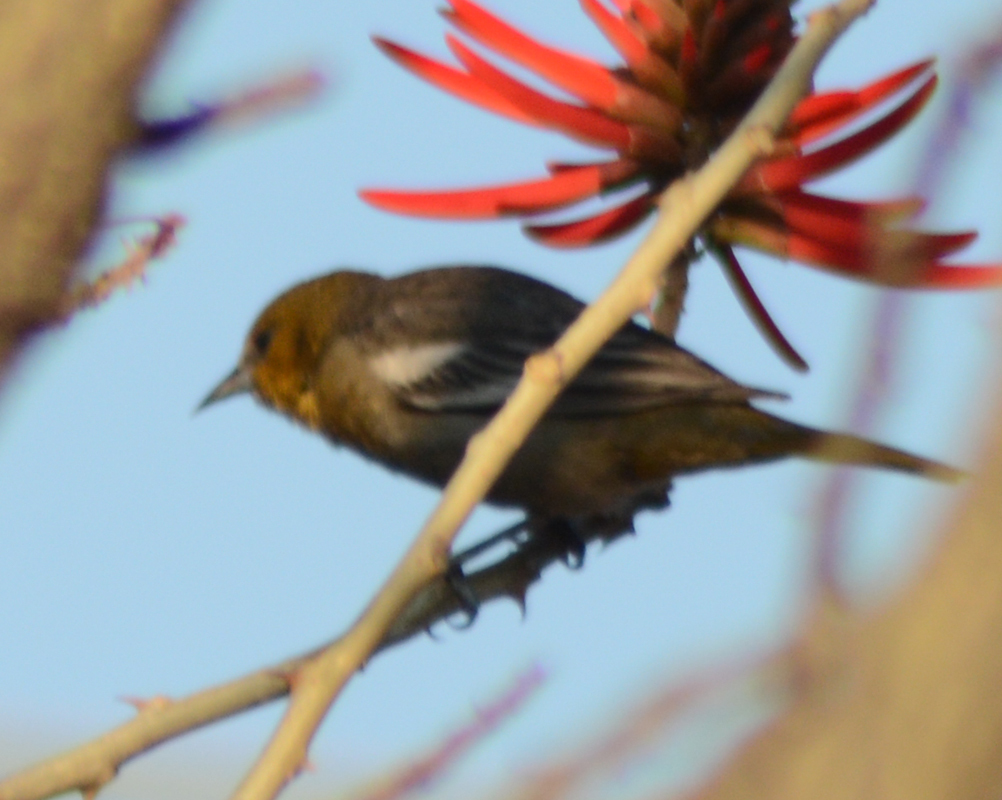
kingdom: Animalia
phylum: Chordata
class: Aves
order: Passeriformes
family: Icteridae
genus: Icterus
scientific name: Icterus abeillei
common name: Black-backed oriole
